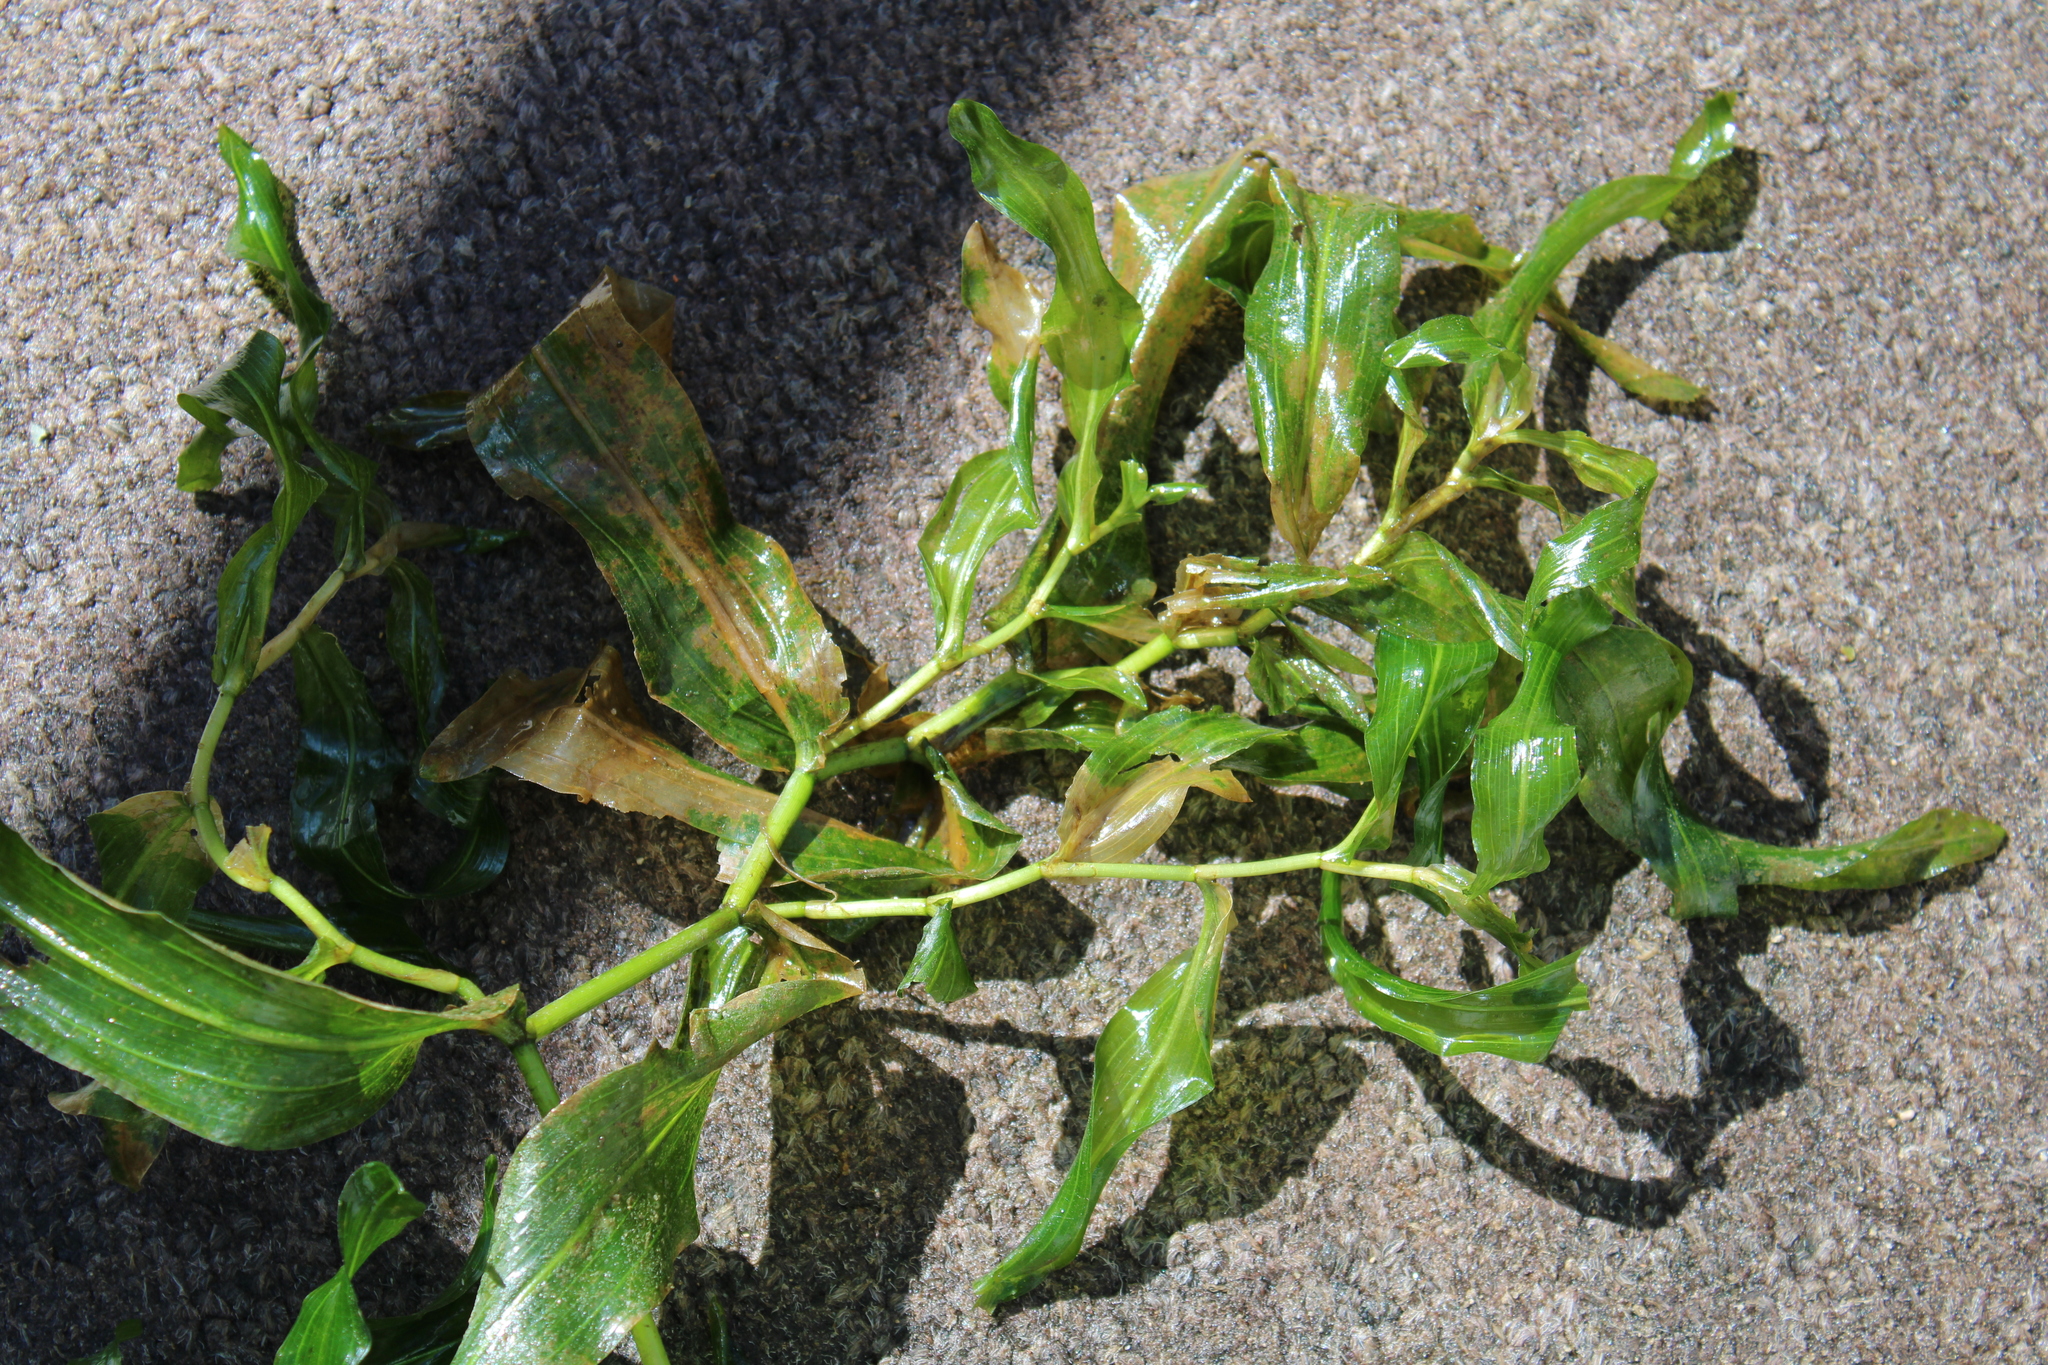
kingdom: Plantae
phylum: Tracheophyta
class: Liliopsida
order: Alismatales
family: Potamogetonaceae
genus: Potamogeton
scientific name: Potamogeton praelongus
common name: Long-stalked pondweed
